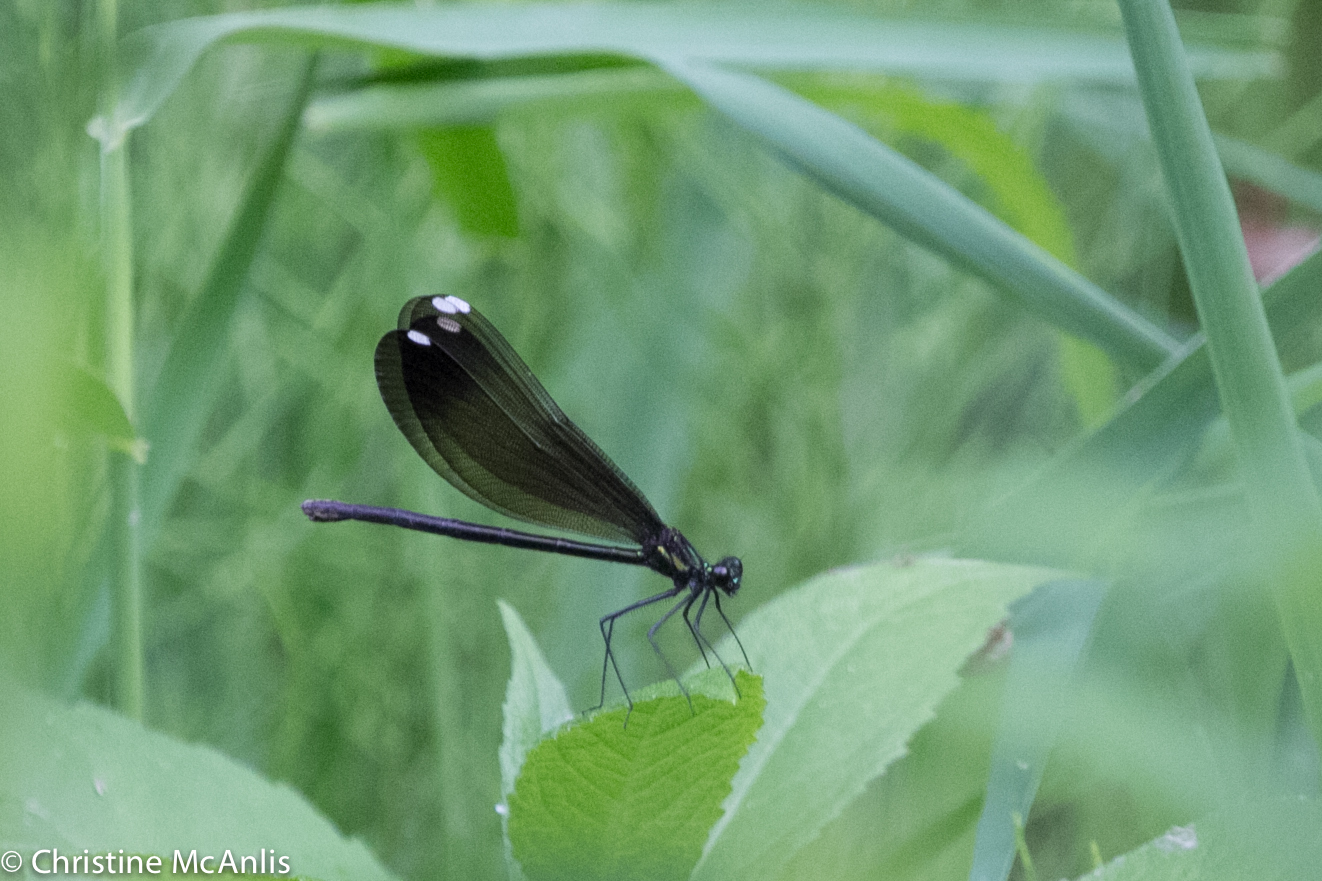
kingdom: Animalia
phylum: Arthropoda
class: Insecta
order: Odonata
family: Calopterygidae
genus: Calopteryx
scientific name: Calopteryx maculata
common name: Ebony jewelwing
